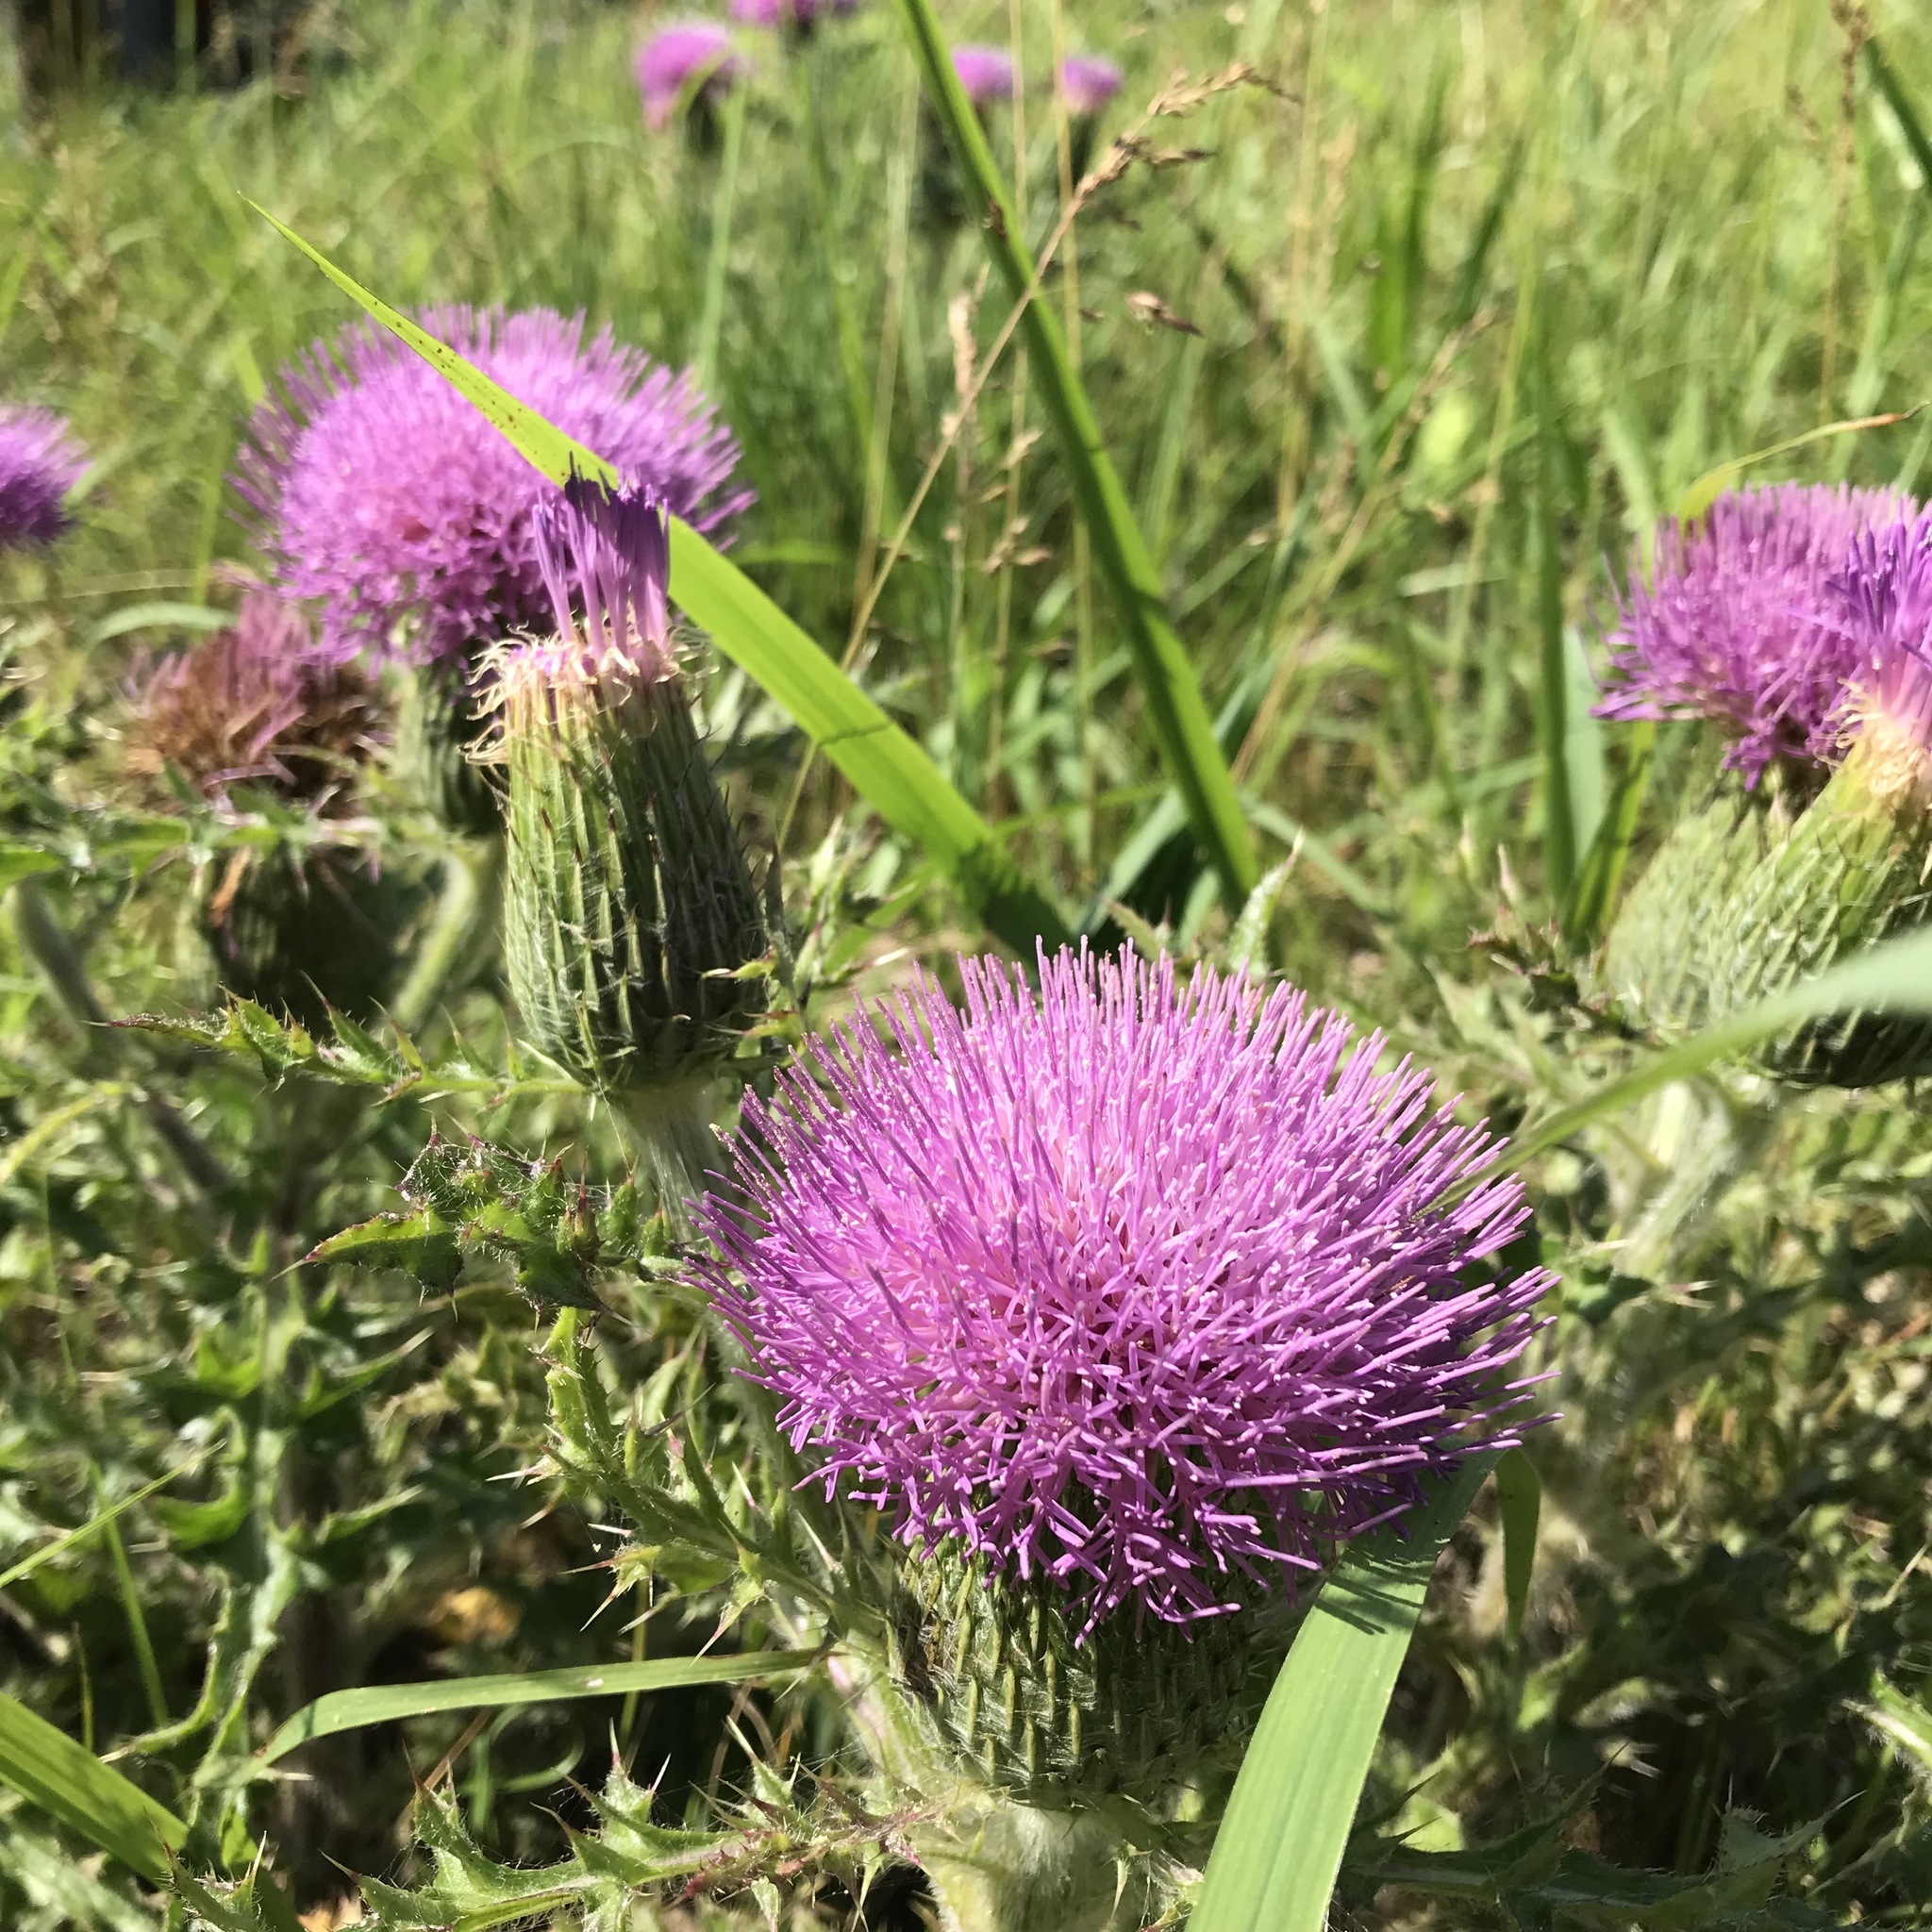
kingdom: Plantae
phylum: Tracheophyta
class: Magnoliopsida
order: Asterales
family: Asteraceae
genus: Cirsium
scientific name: Cirsium pumilum
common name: Pasture thistle
